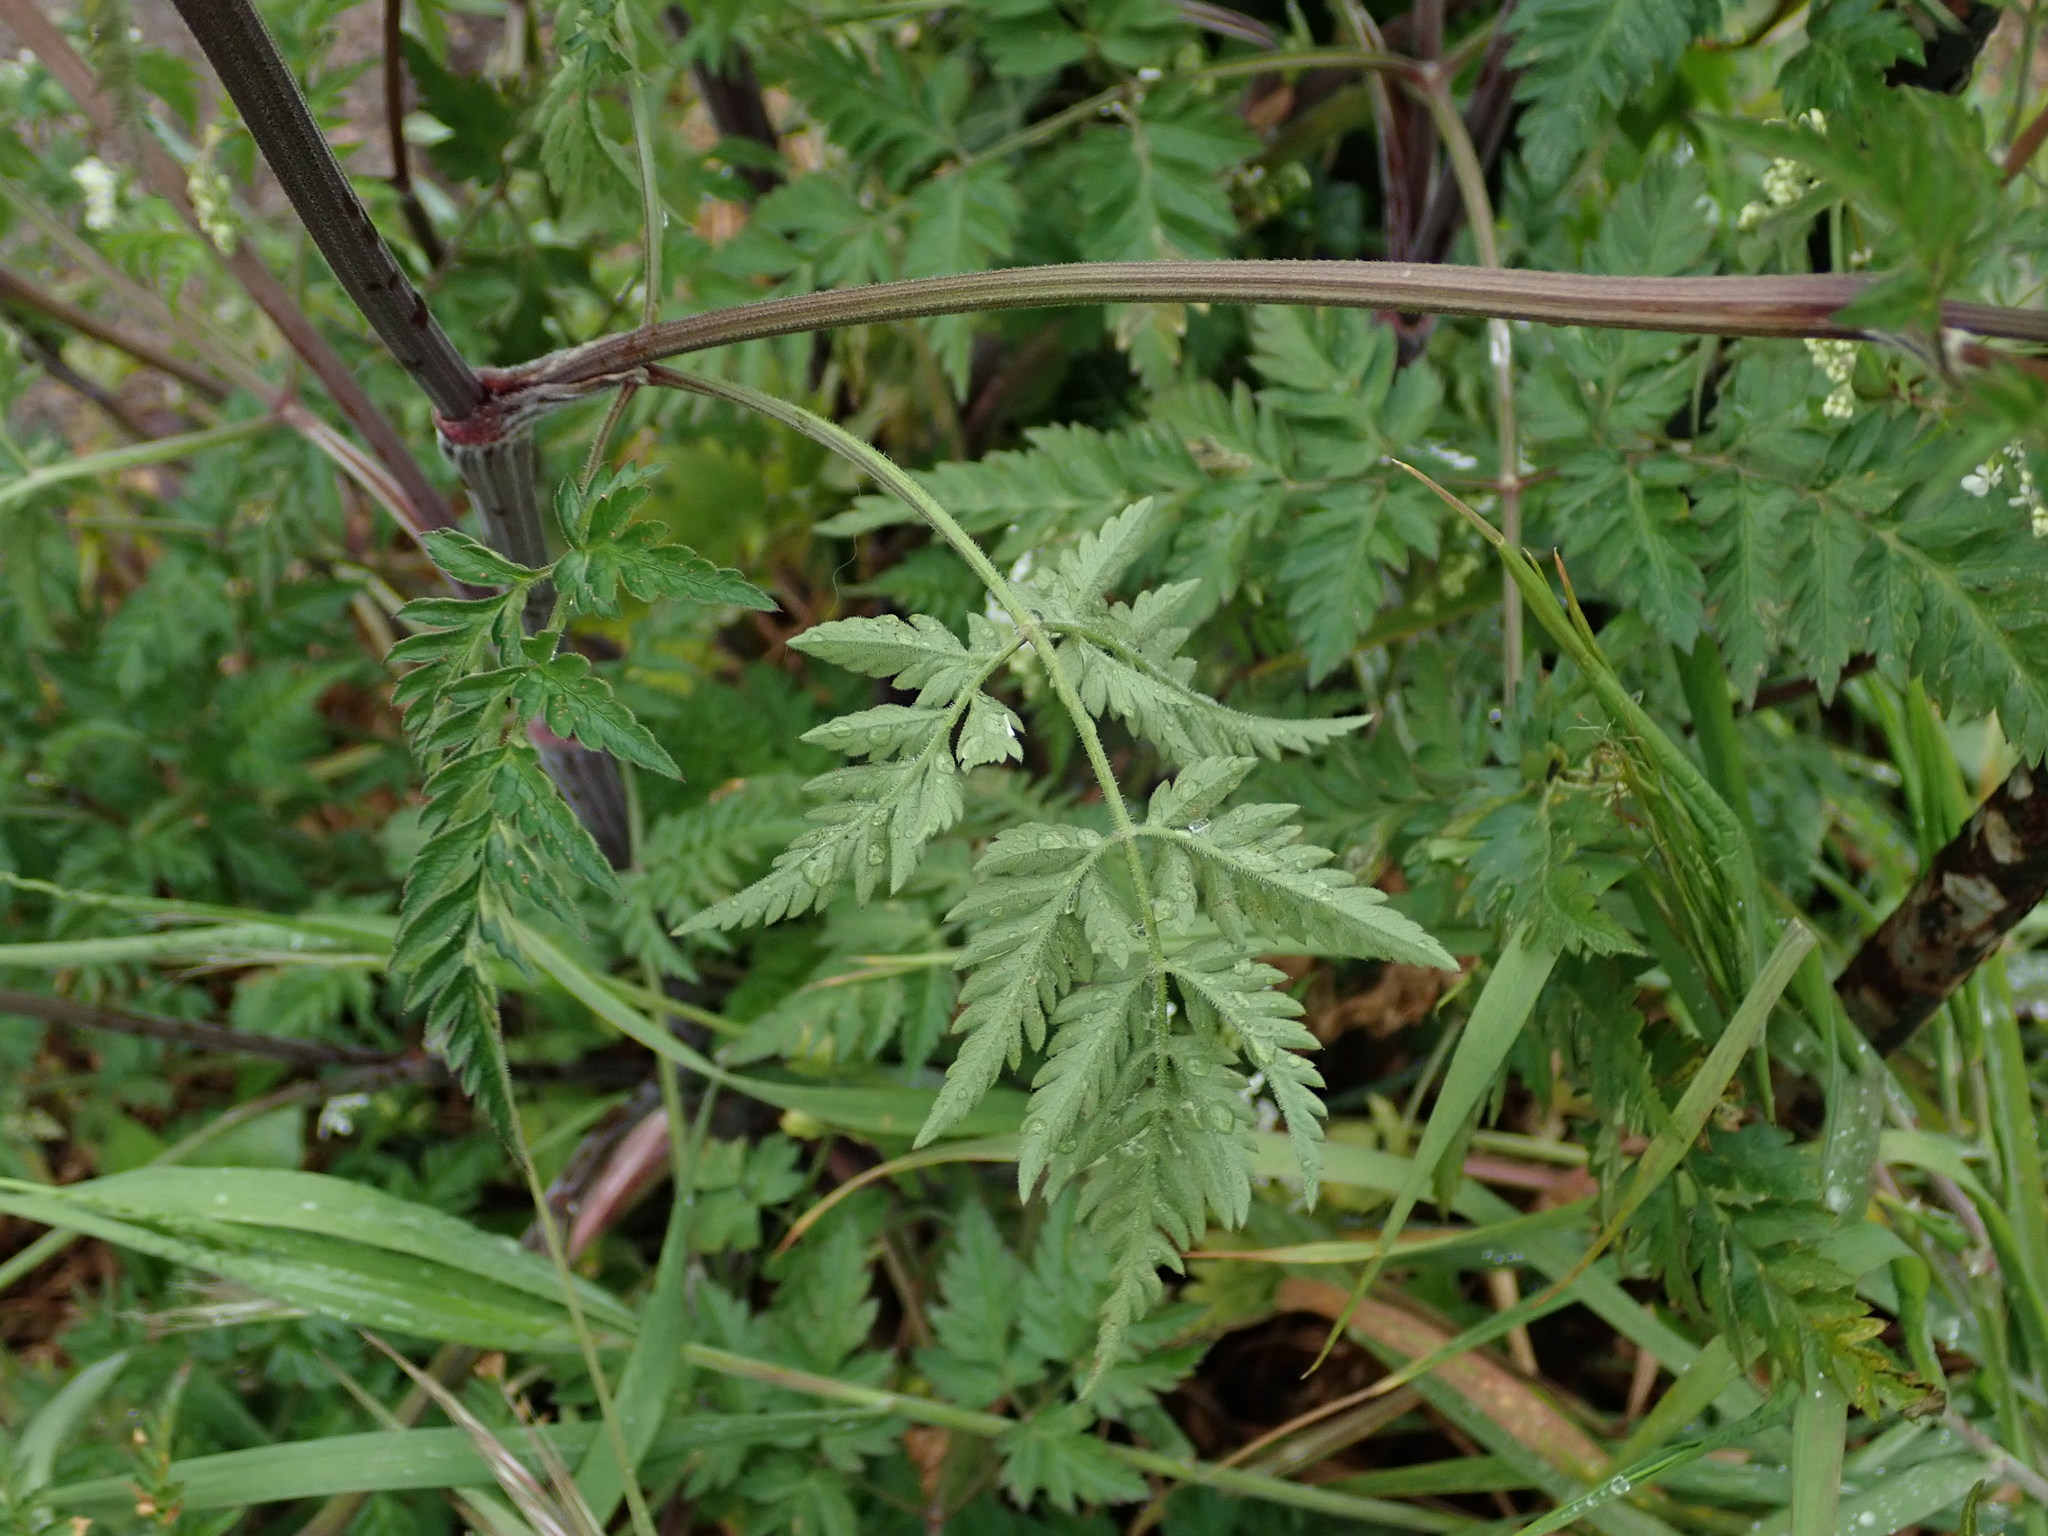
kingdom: Plantae
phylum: Tracheophyta
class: Magnoliopsida
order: Apiales
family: Apiaceae
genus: Anthriscus
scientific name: Anthriscus sylvestris
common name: Cow parsley
